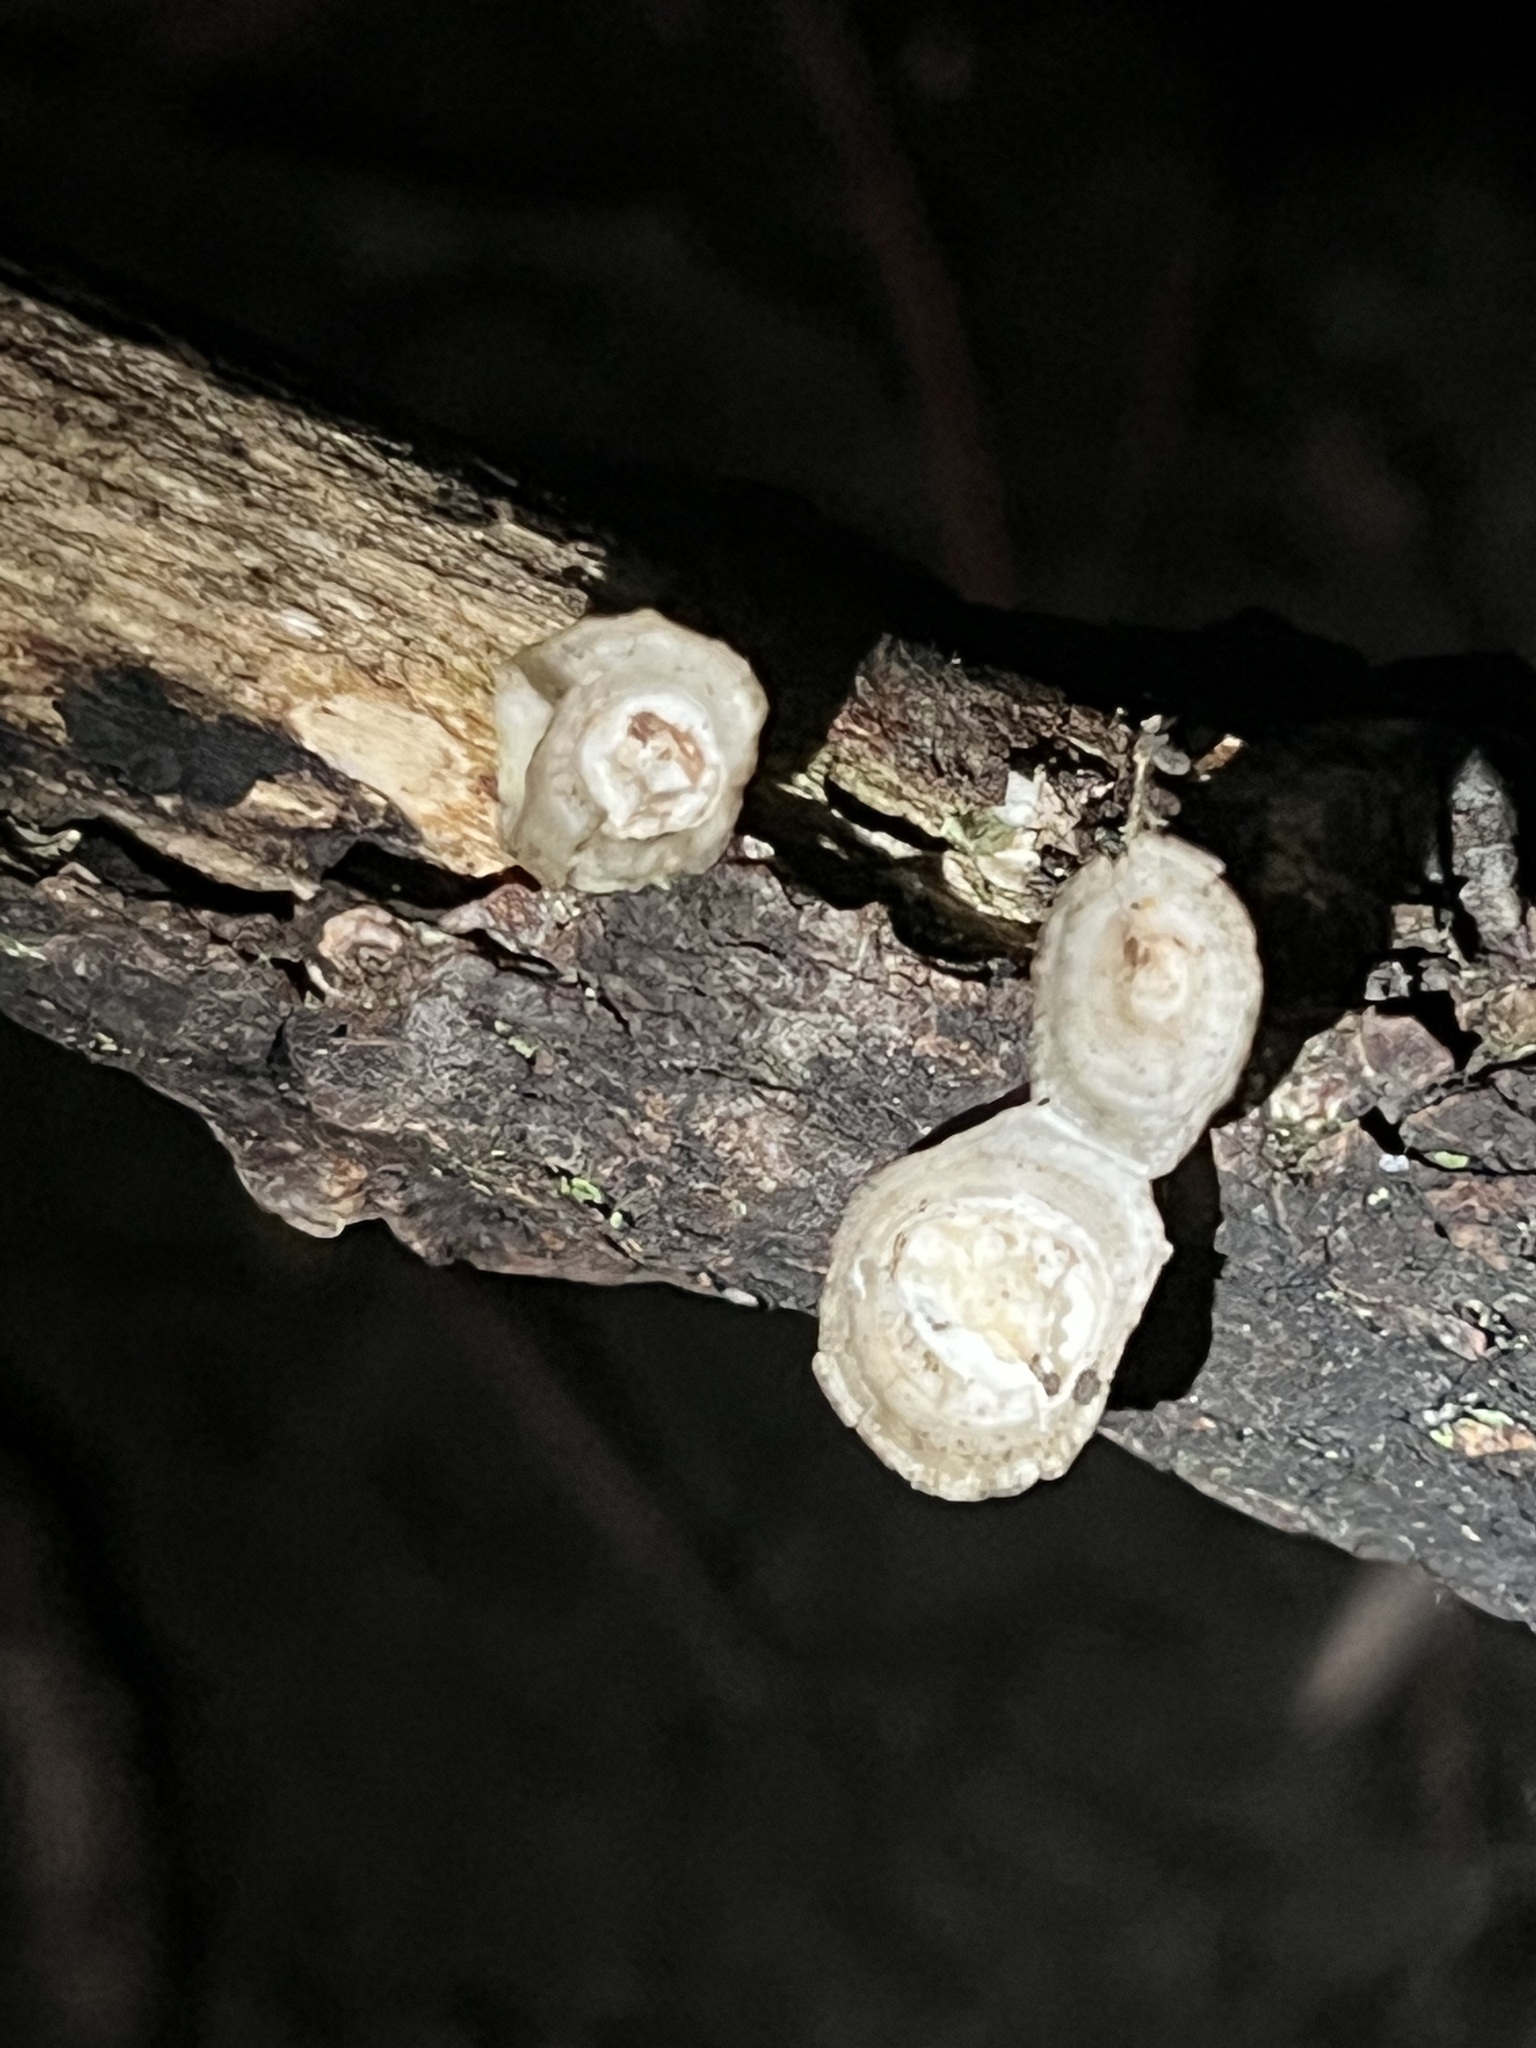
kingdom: Fungi
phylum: Basidiomycota
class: Agaricomycetes
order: Polyporales
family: Polyporaceae
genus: Poronidulus
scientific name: Poronidulus conchifer
